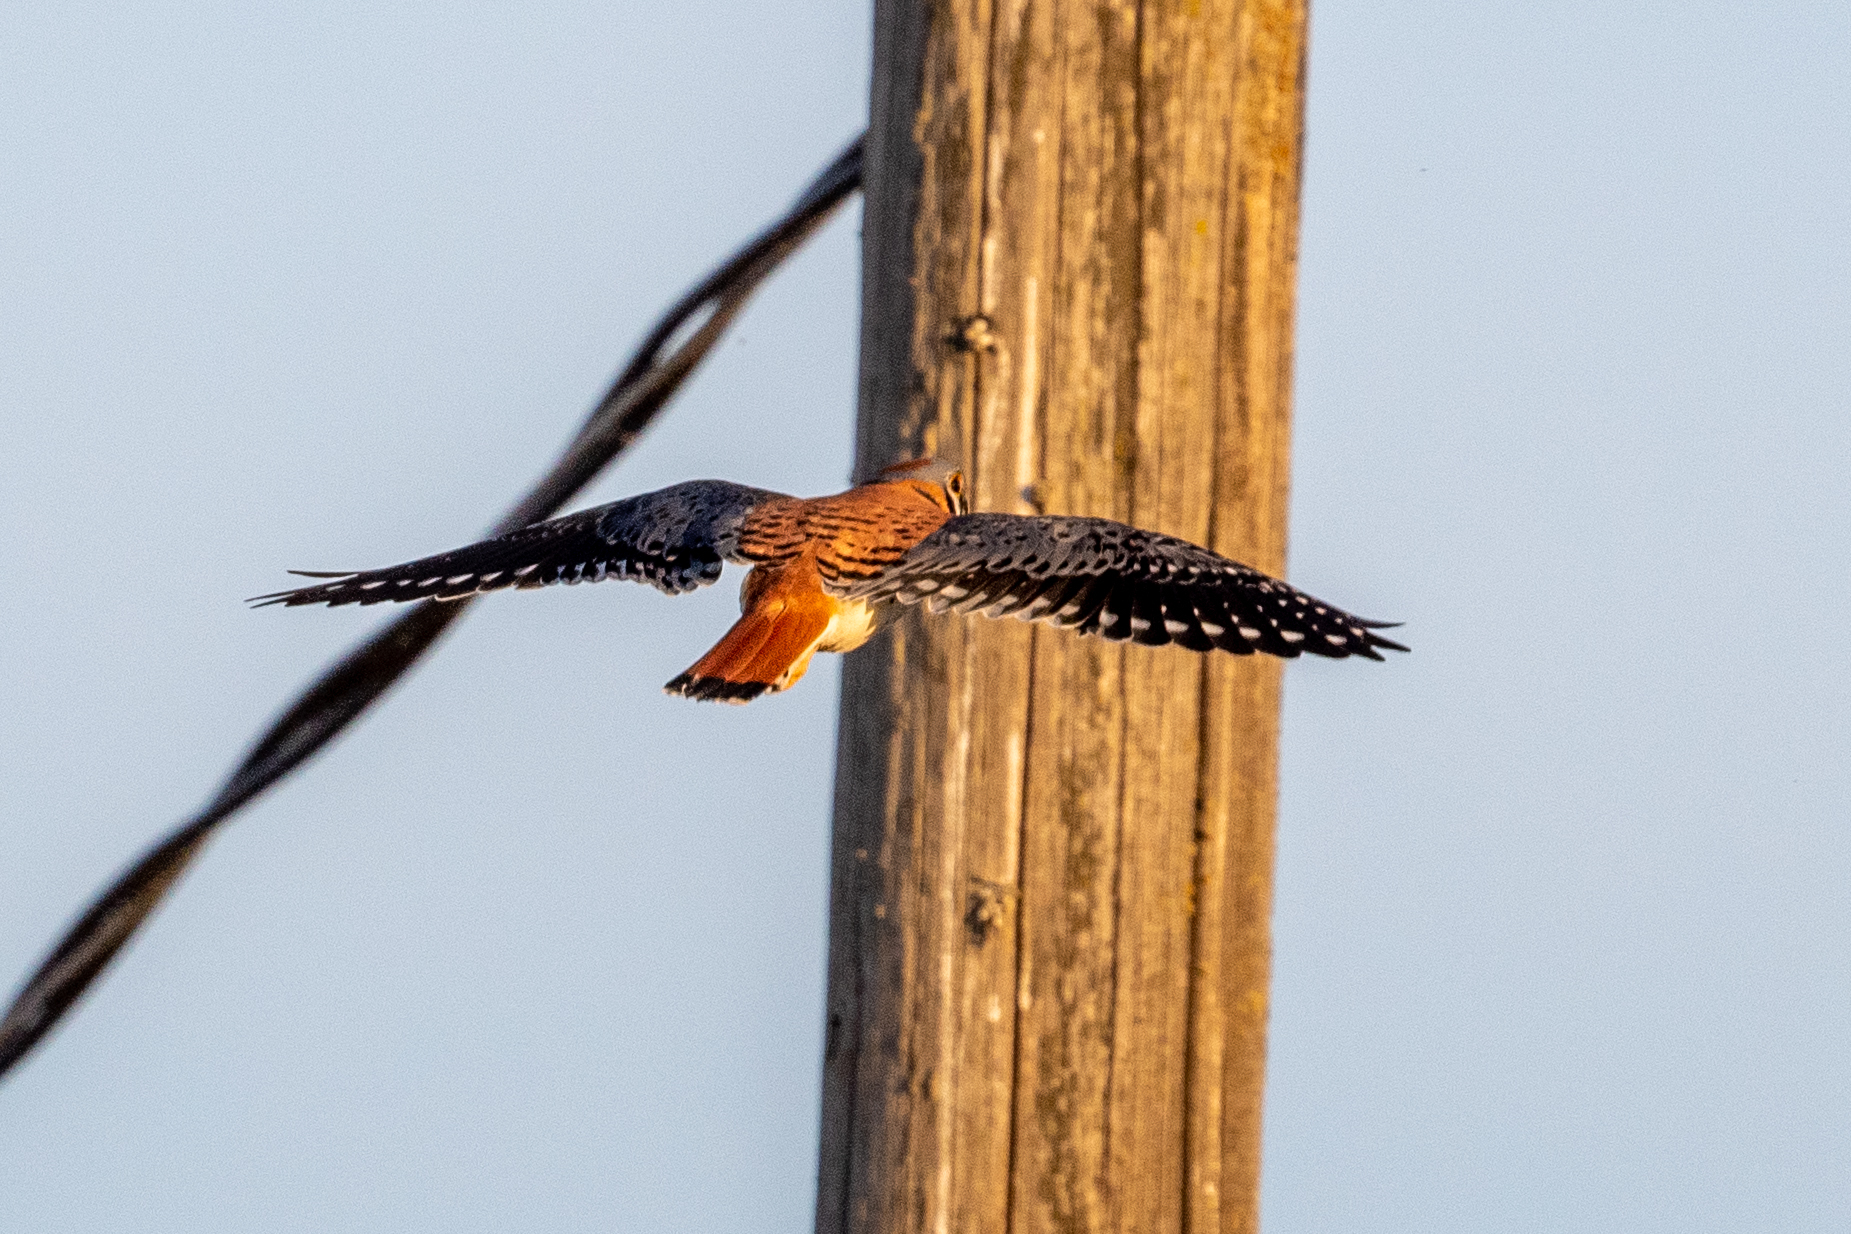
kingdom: Animalia
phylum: Chordata
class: Aves
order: Falconiformes
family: Falconidae
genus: Falco
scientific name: Falco sparverius
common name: American kestrel
